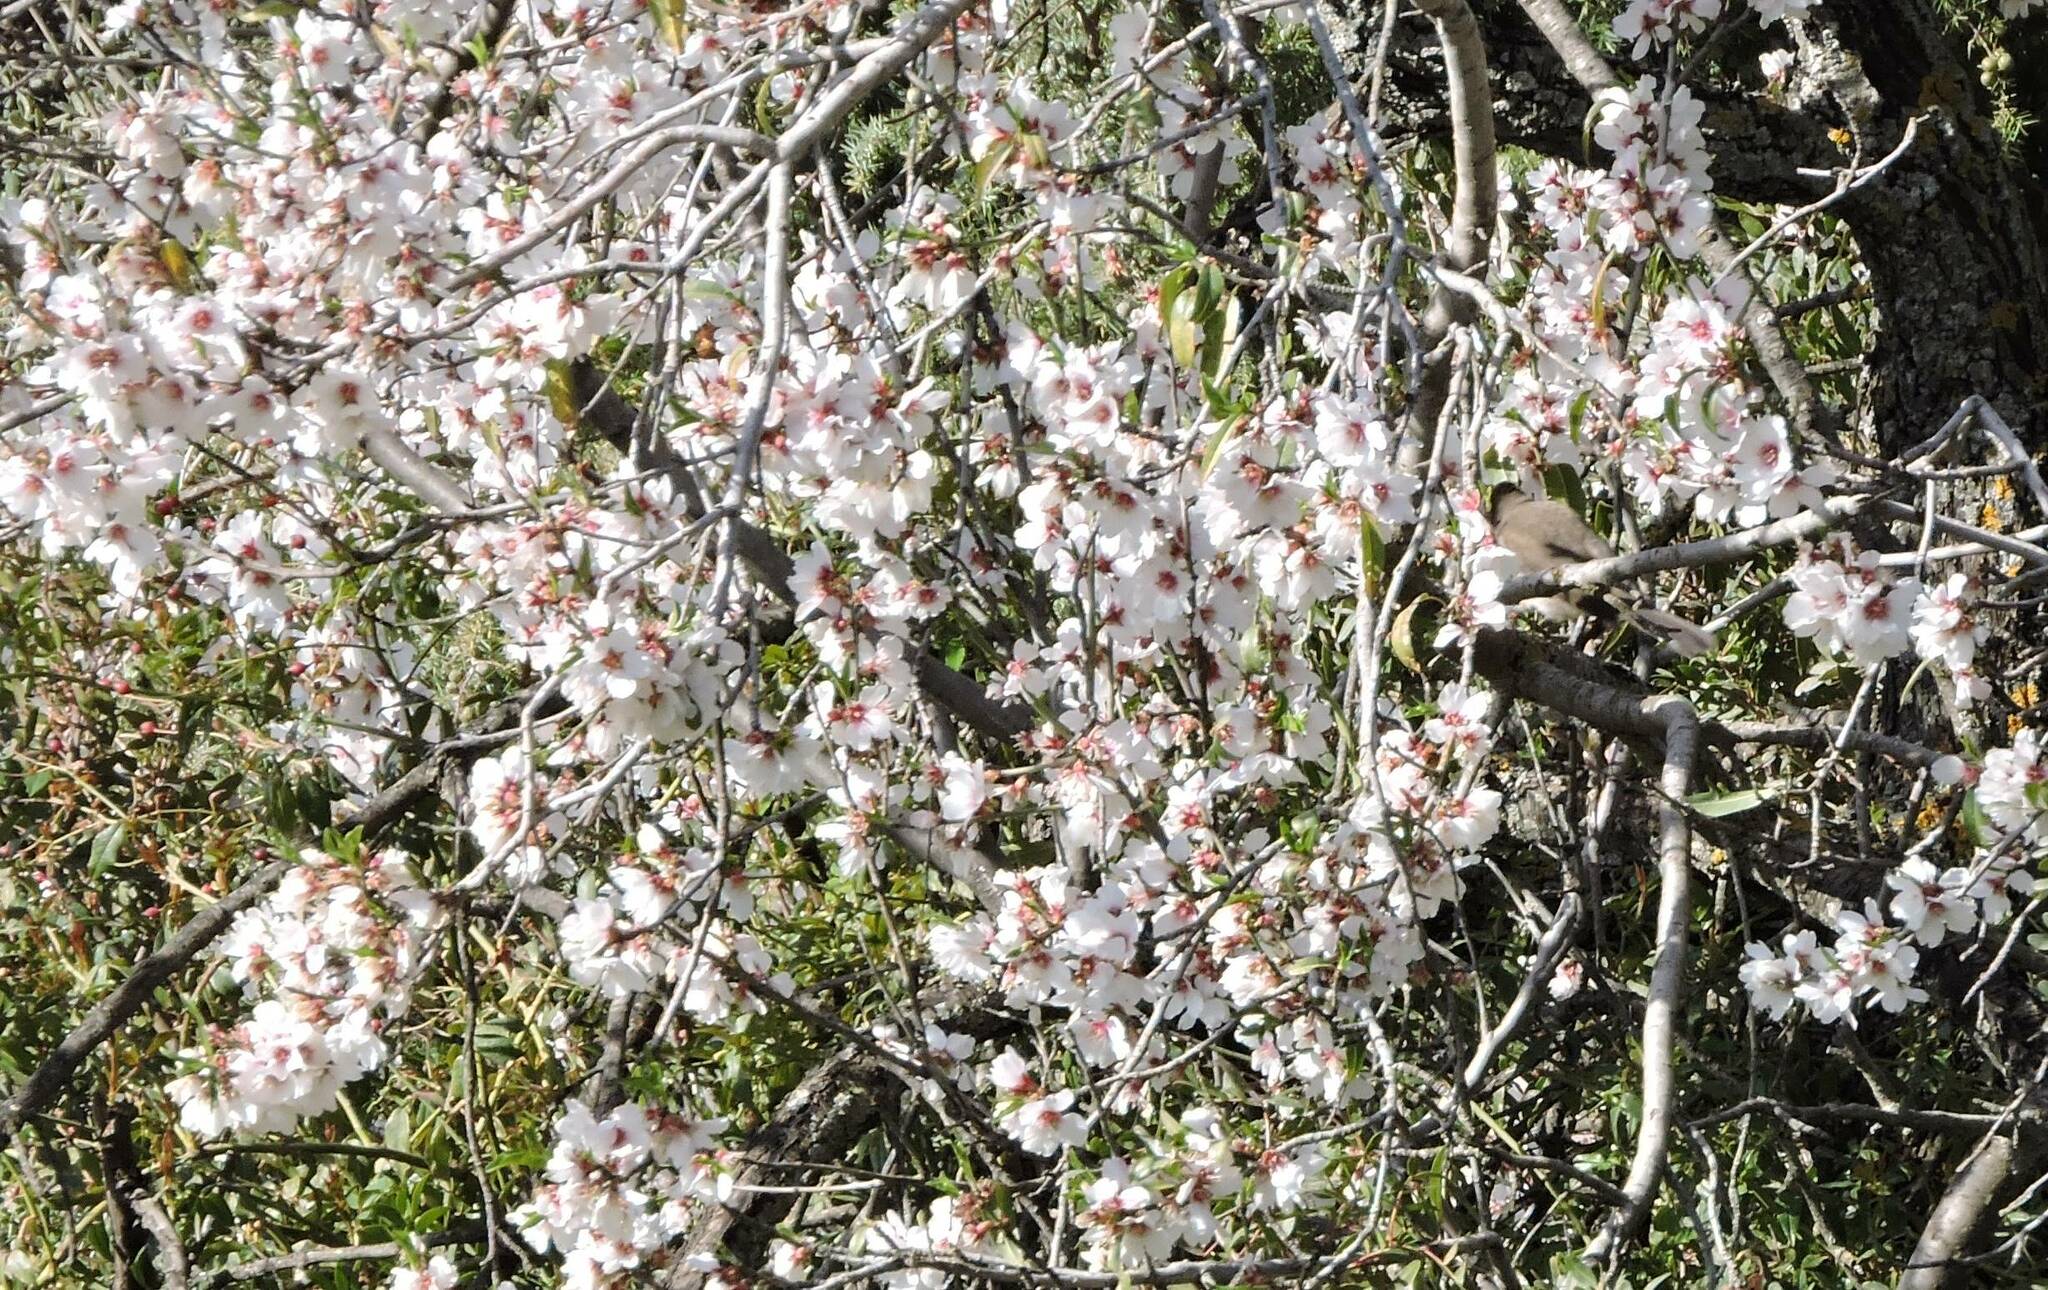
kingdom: Plantae
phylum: Tracheophyta
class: Magnoliopsida
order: Rosales
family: Rosaceae
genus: Prunus
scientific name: Prunus amygdalus
